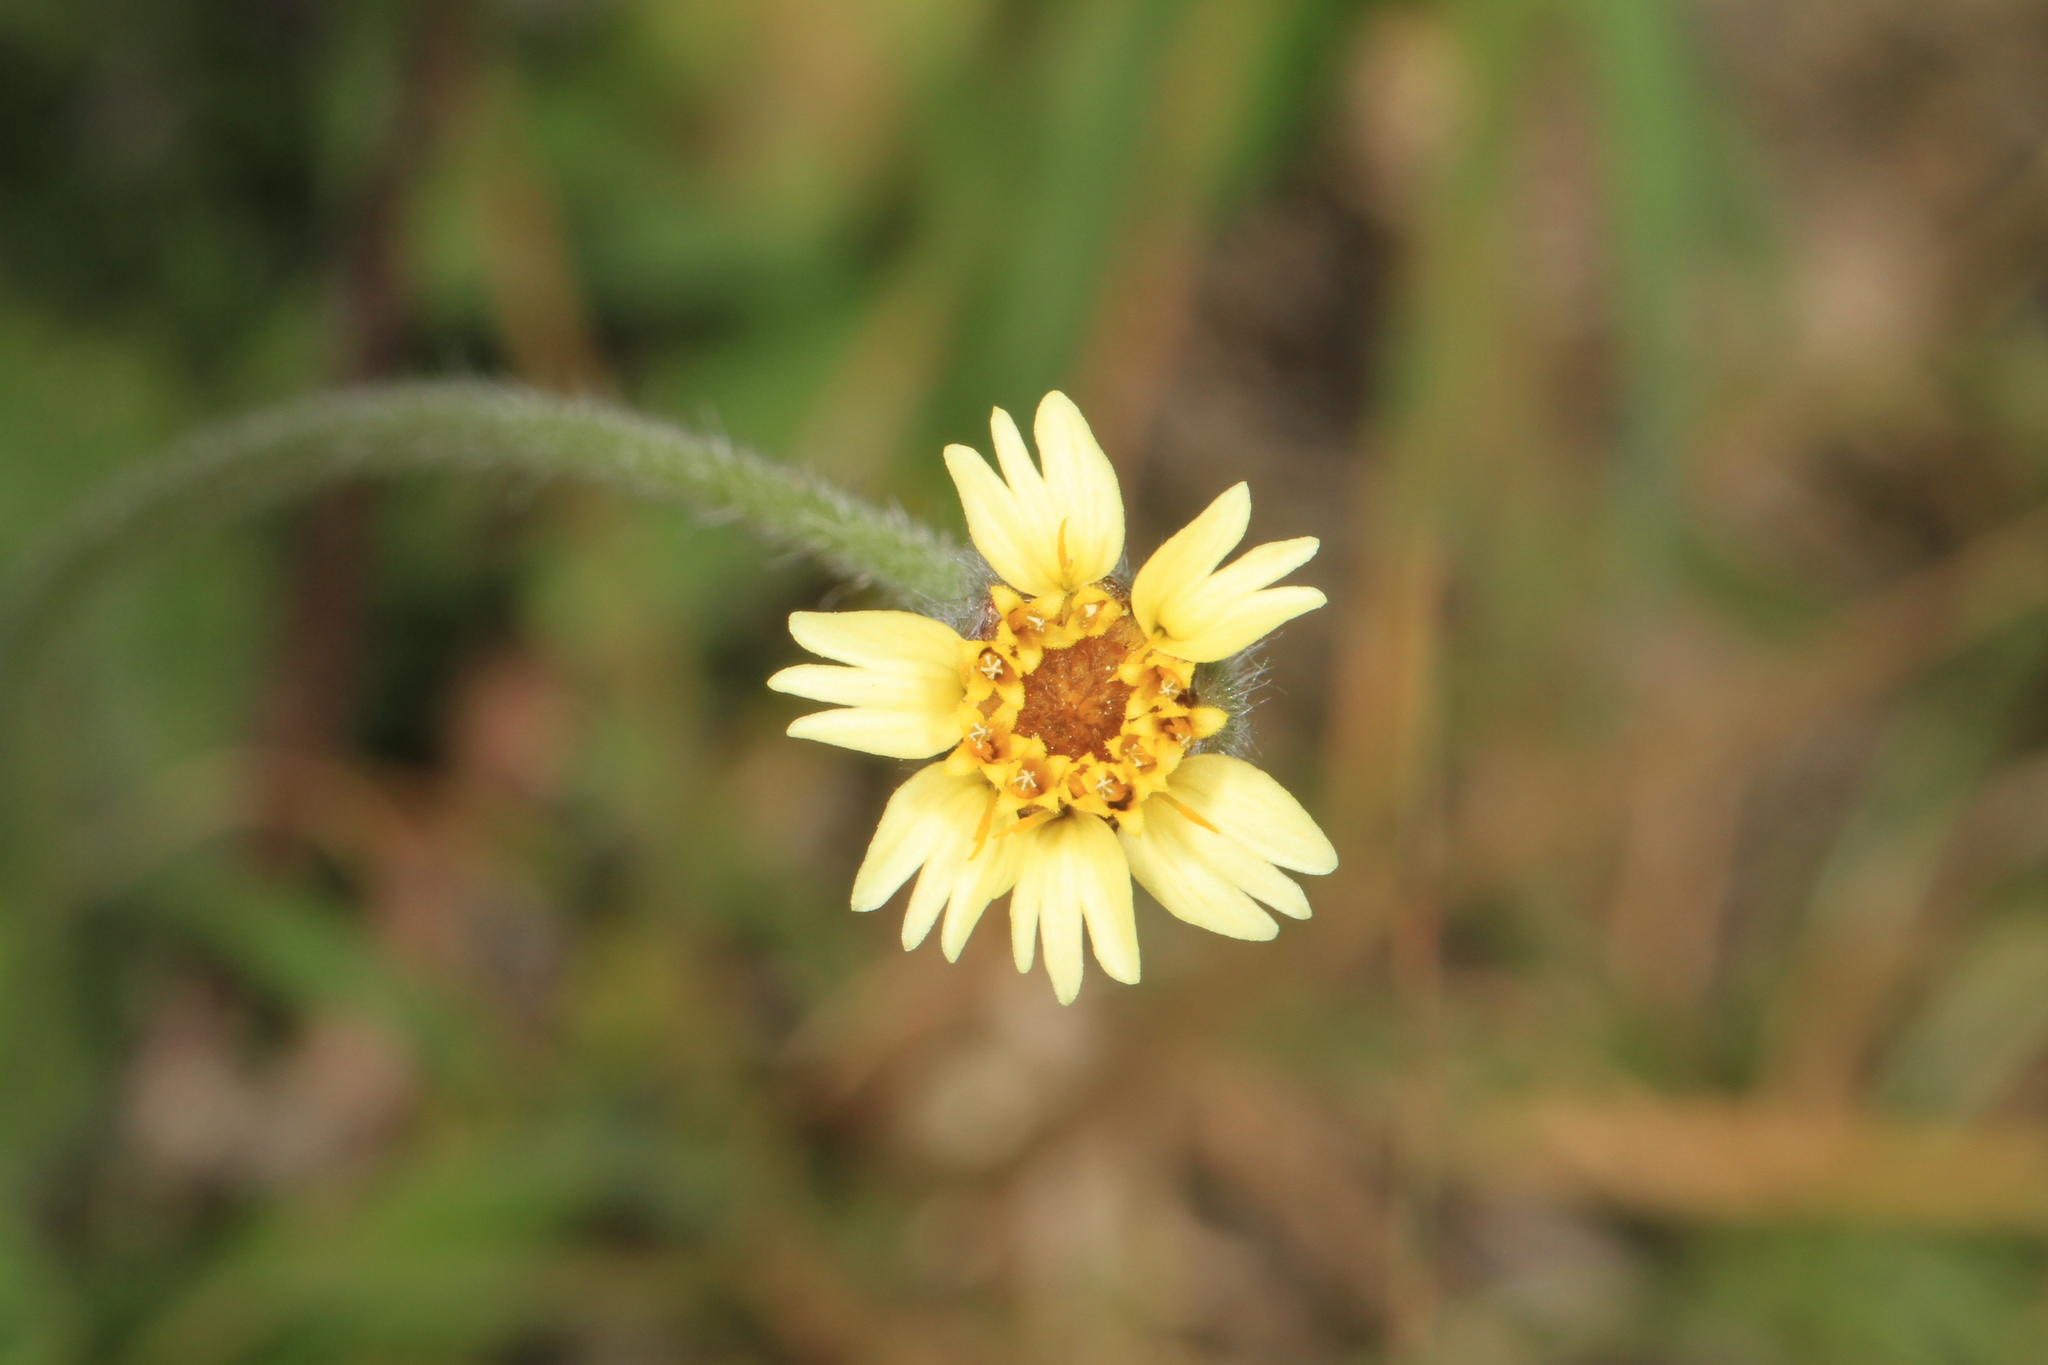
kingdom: Plantae
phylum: Tracheophyta
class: Magnoliopsida
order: Asterales
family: Asteraceae
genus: Tridax
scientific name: Tridax procumbens
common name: Coatbuttons
